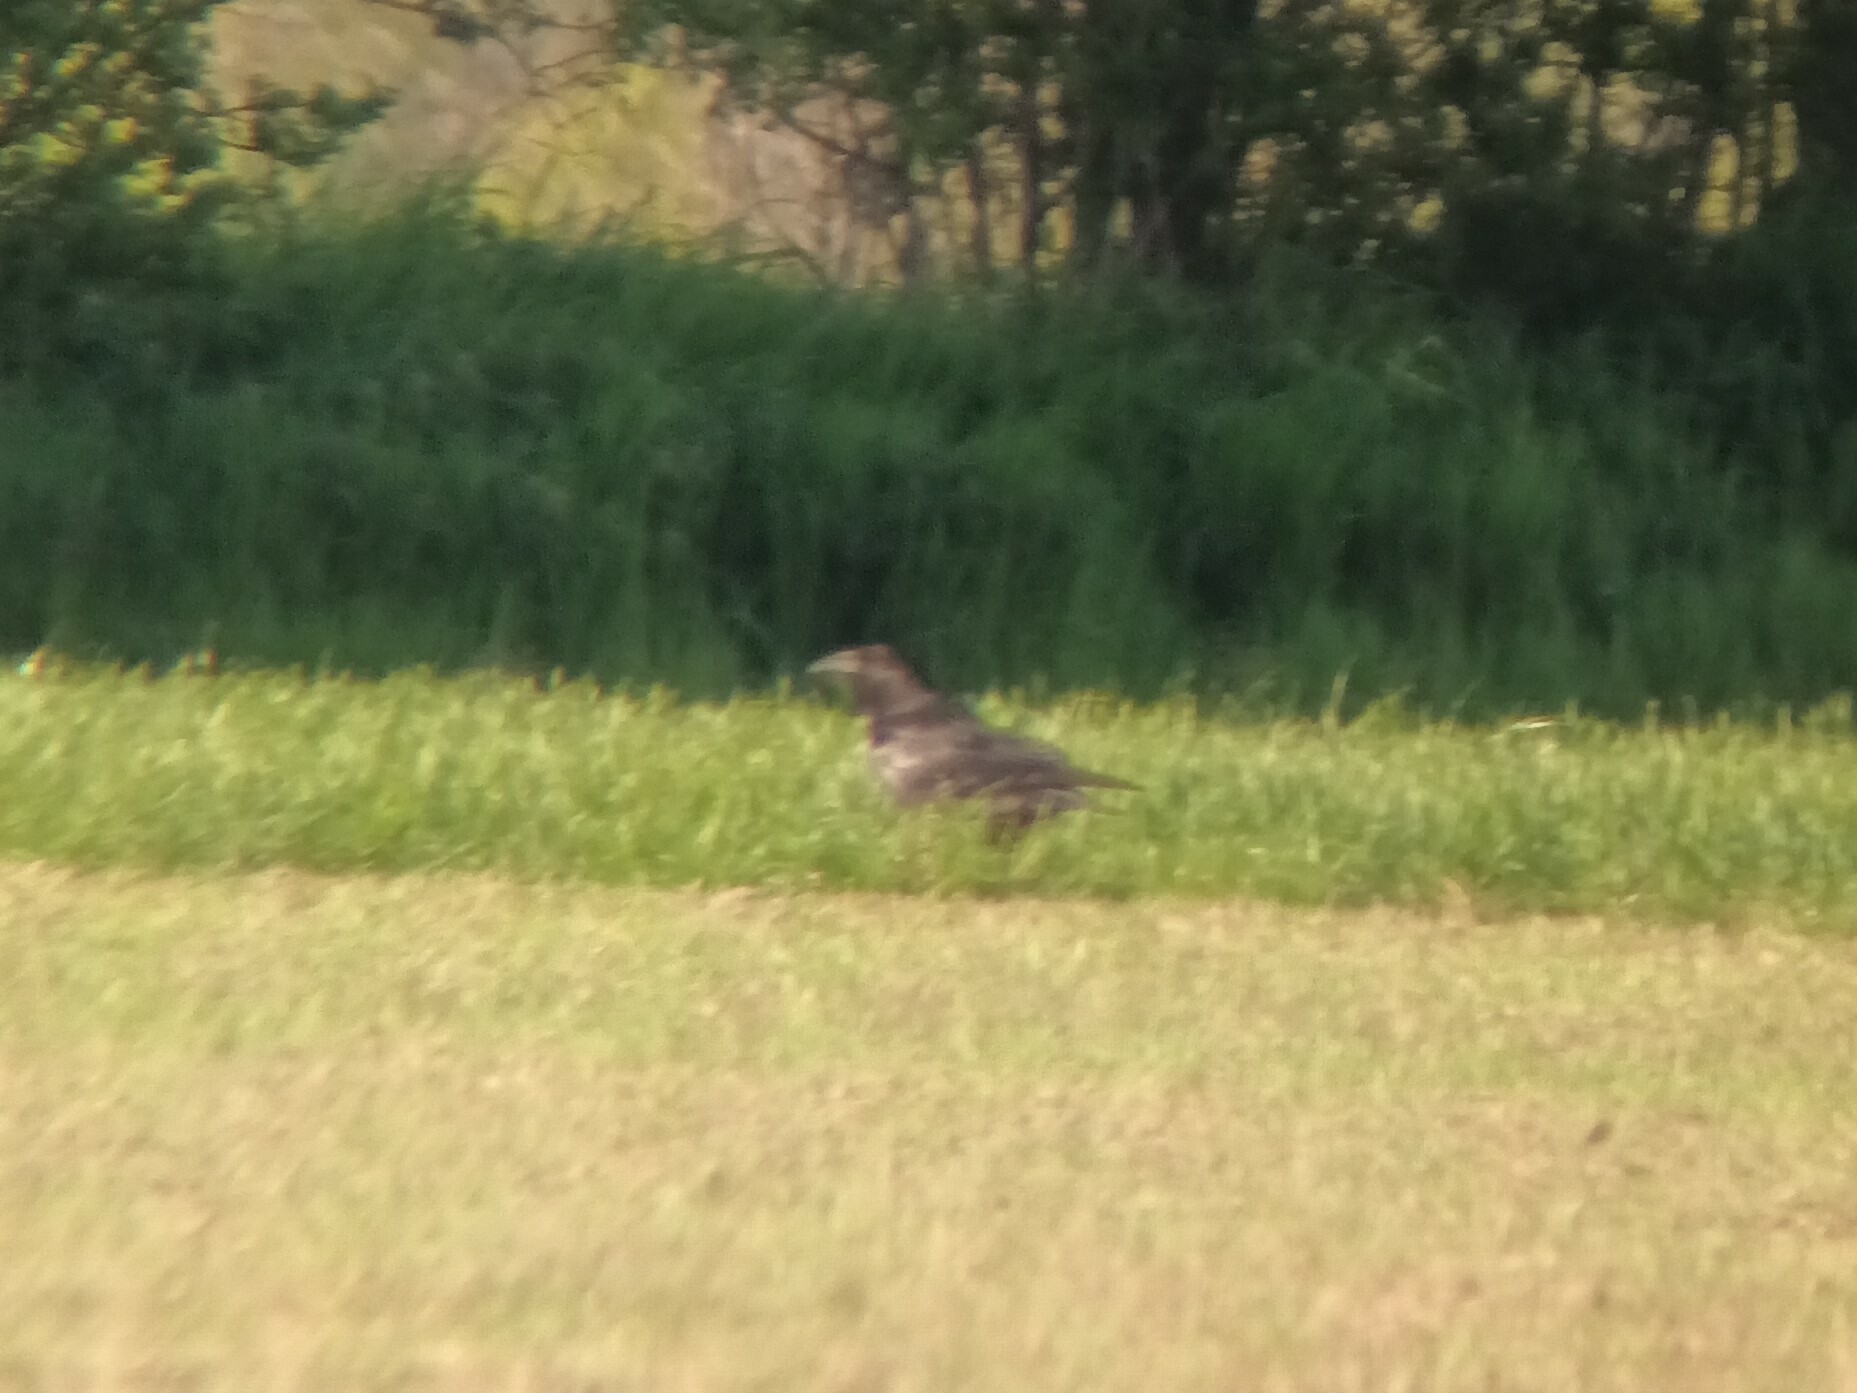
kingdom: Animalia
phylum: Chordata
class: Aves
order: Passeriformes
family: Corvidae
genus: Corvus
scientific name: Corvus corax
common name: Common raven
